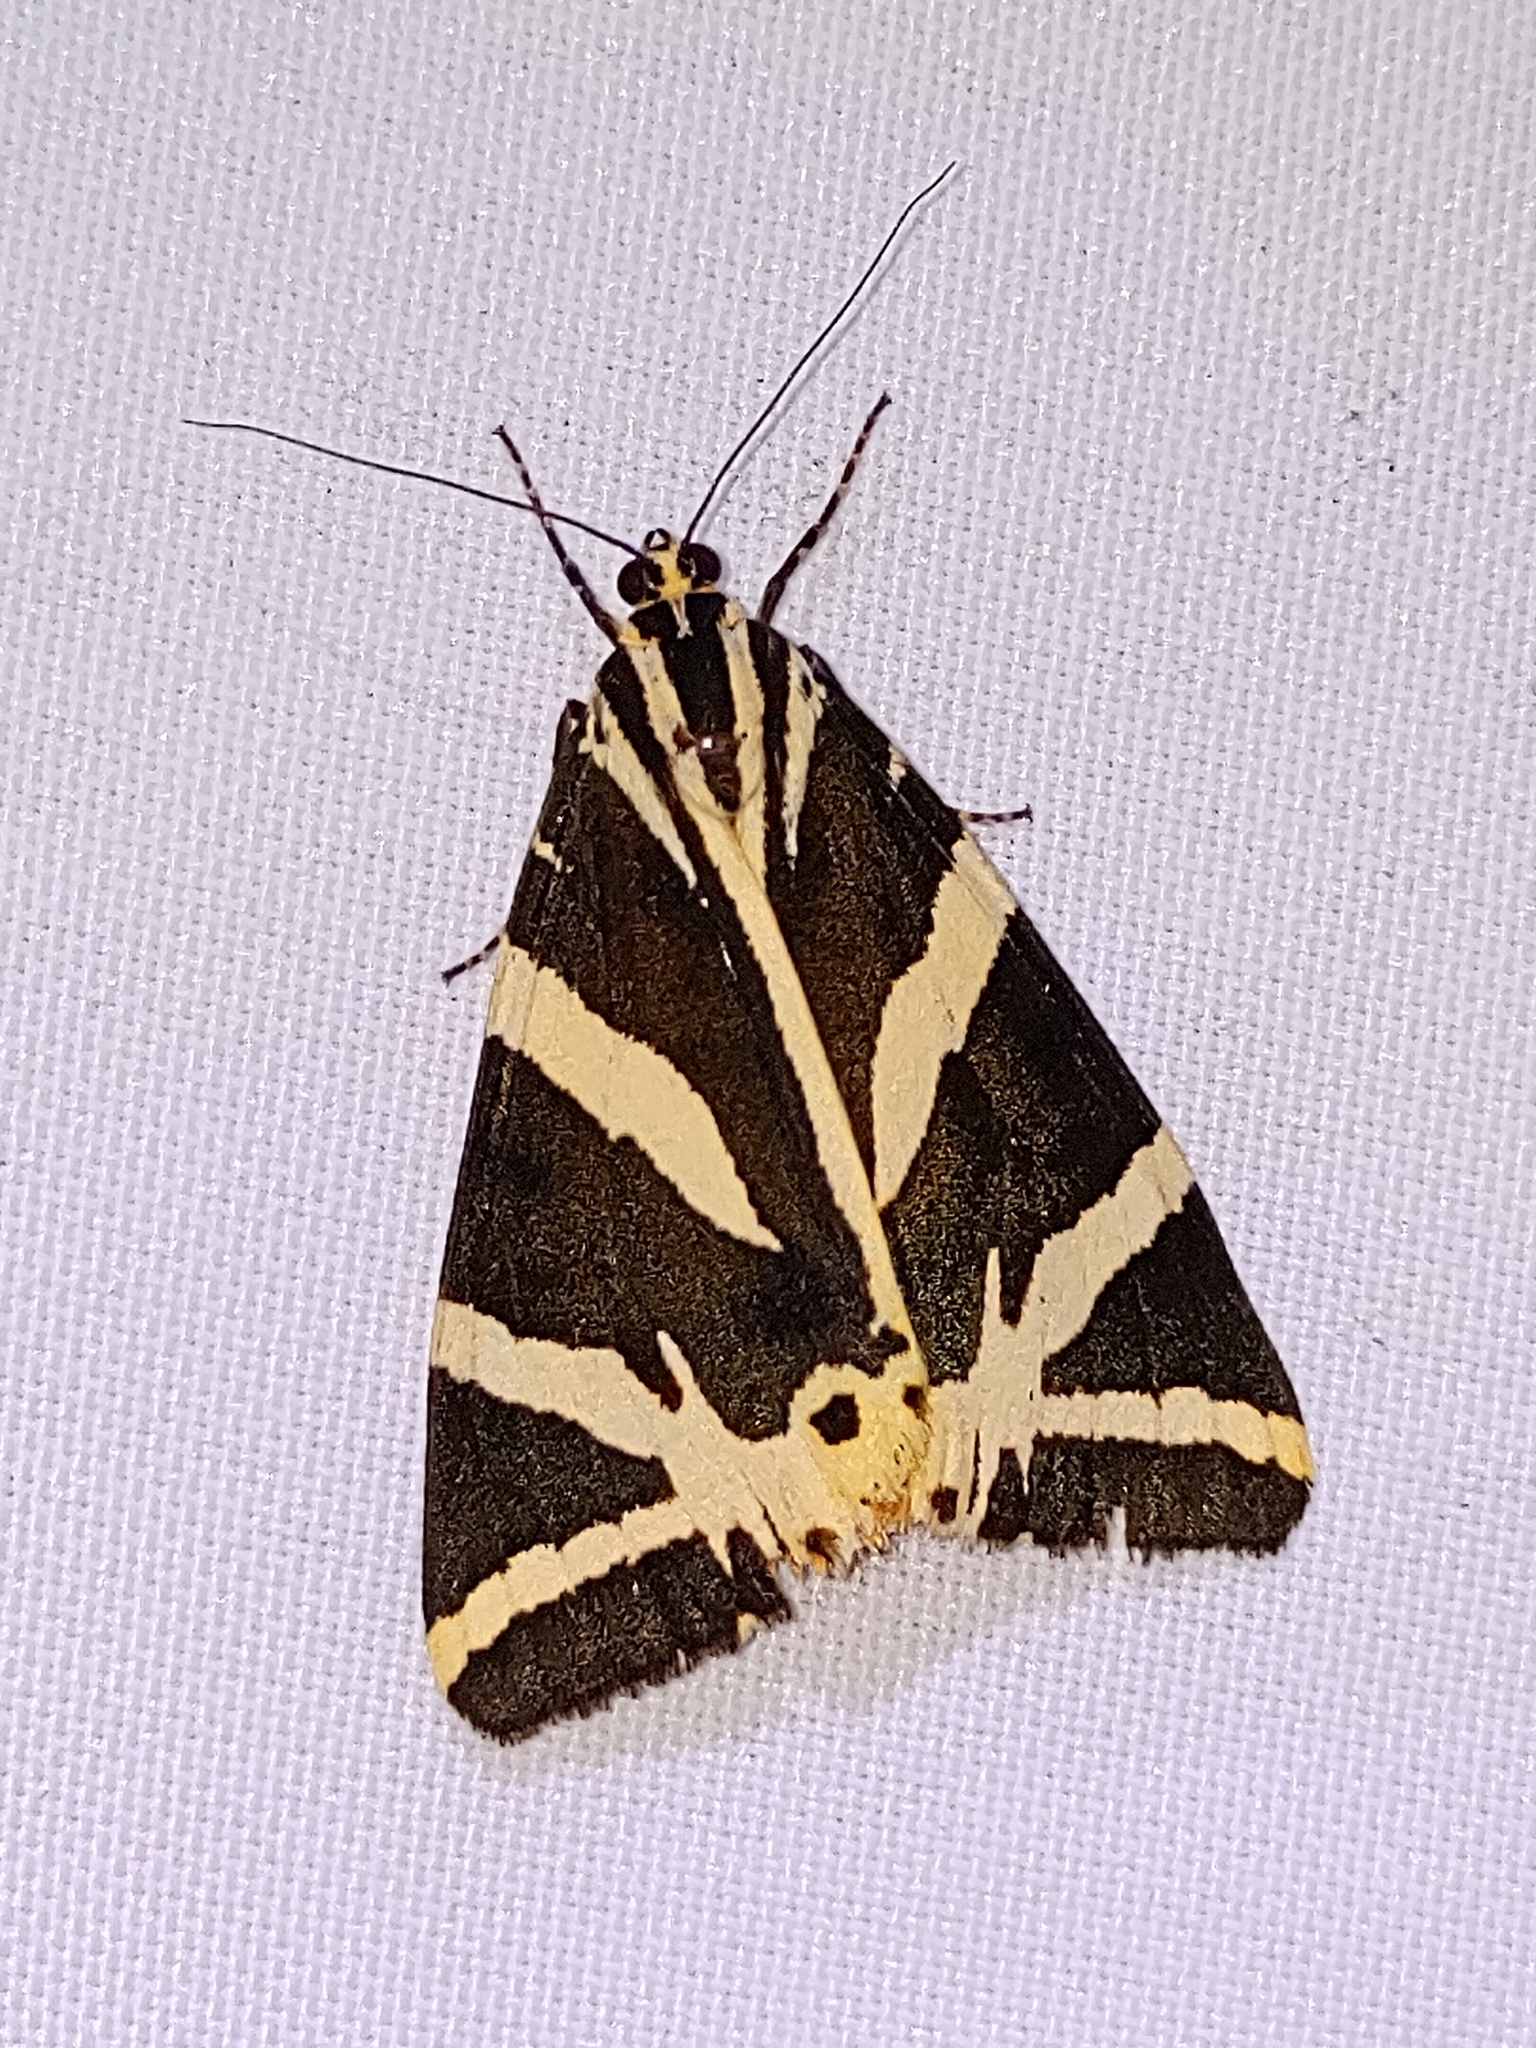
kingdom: Animalia
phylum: Arthropoda
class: Insecta
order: Lepidoptera
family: Erebidae
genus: Euplagia
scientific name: Euplagia quadripunctaria
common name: Jersey tiger
